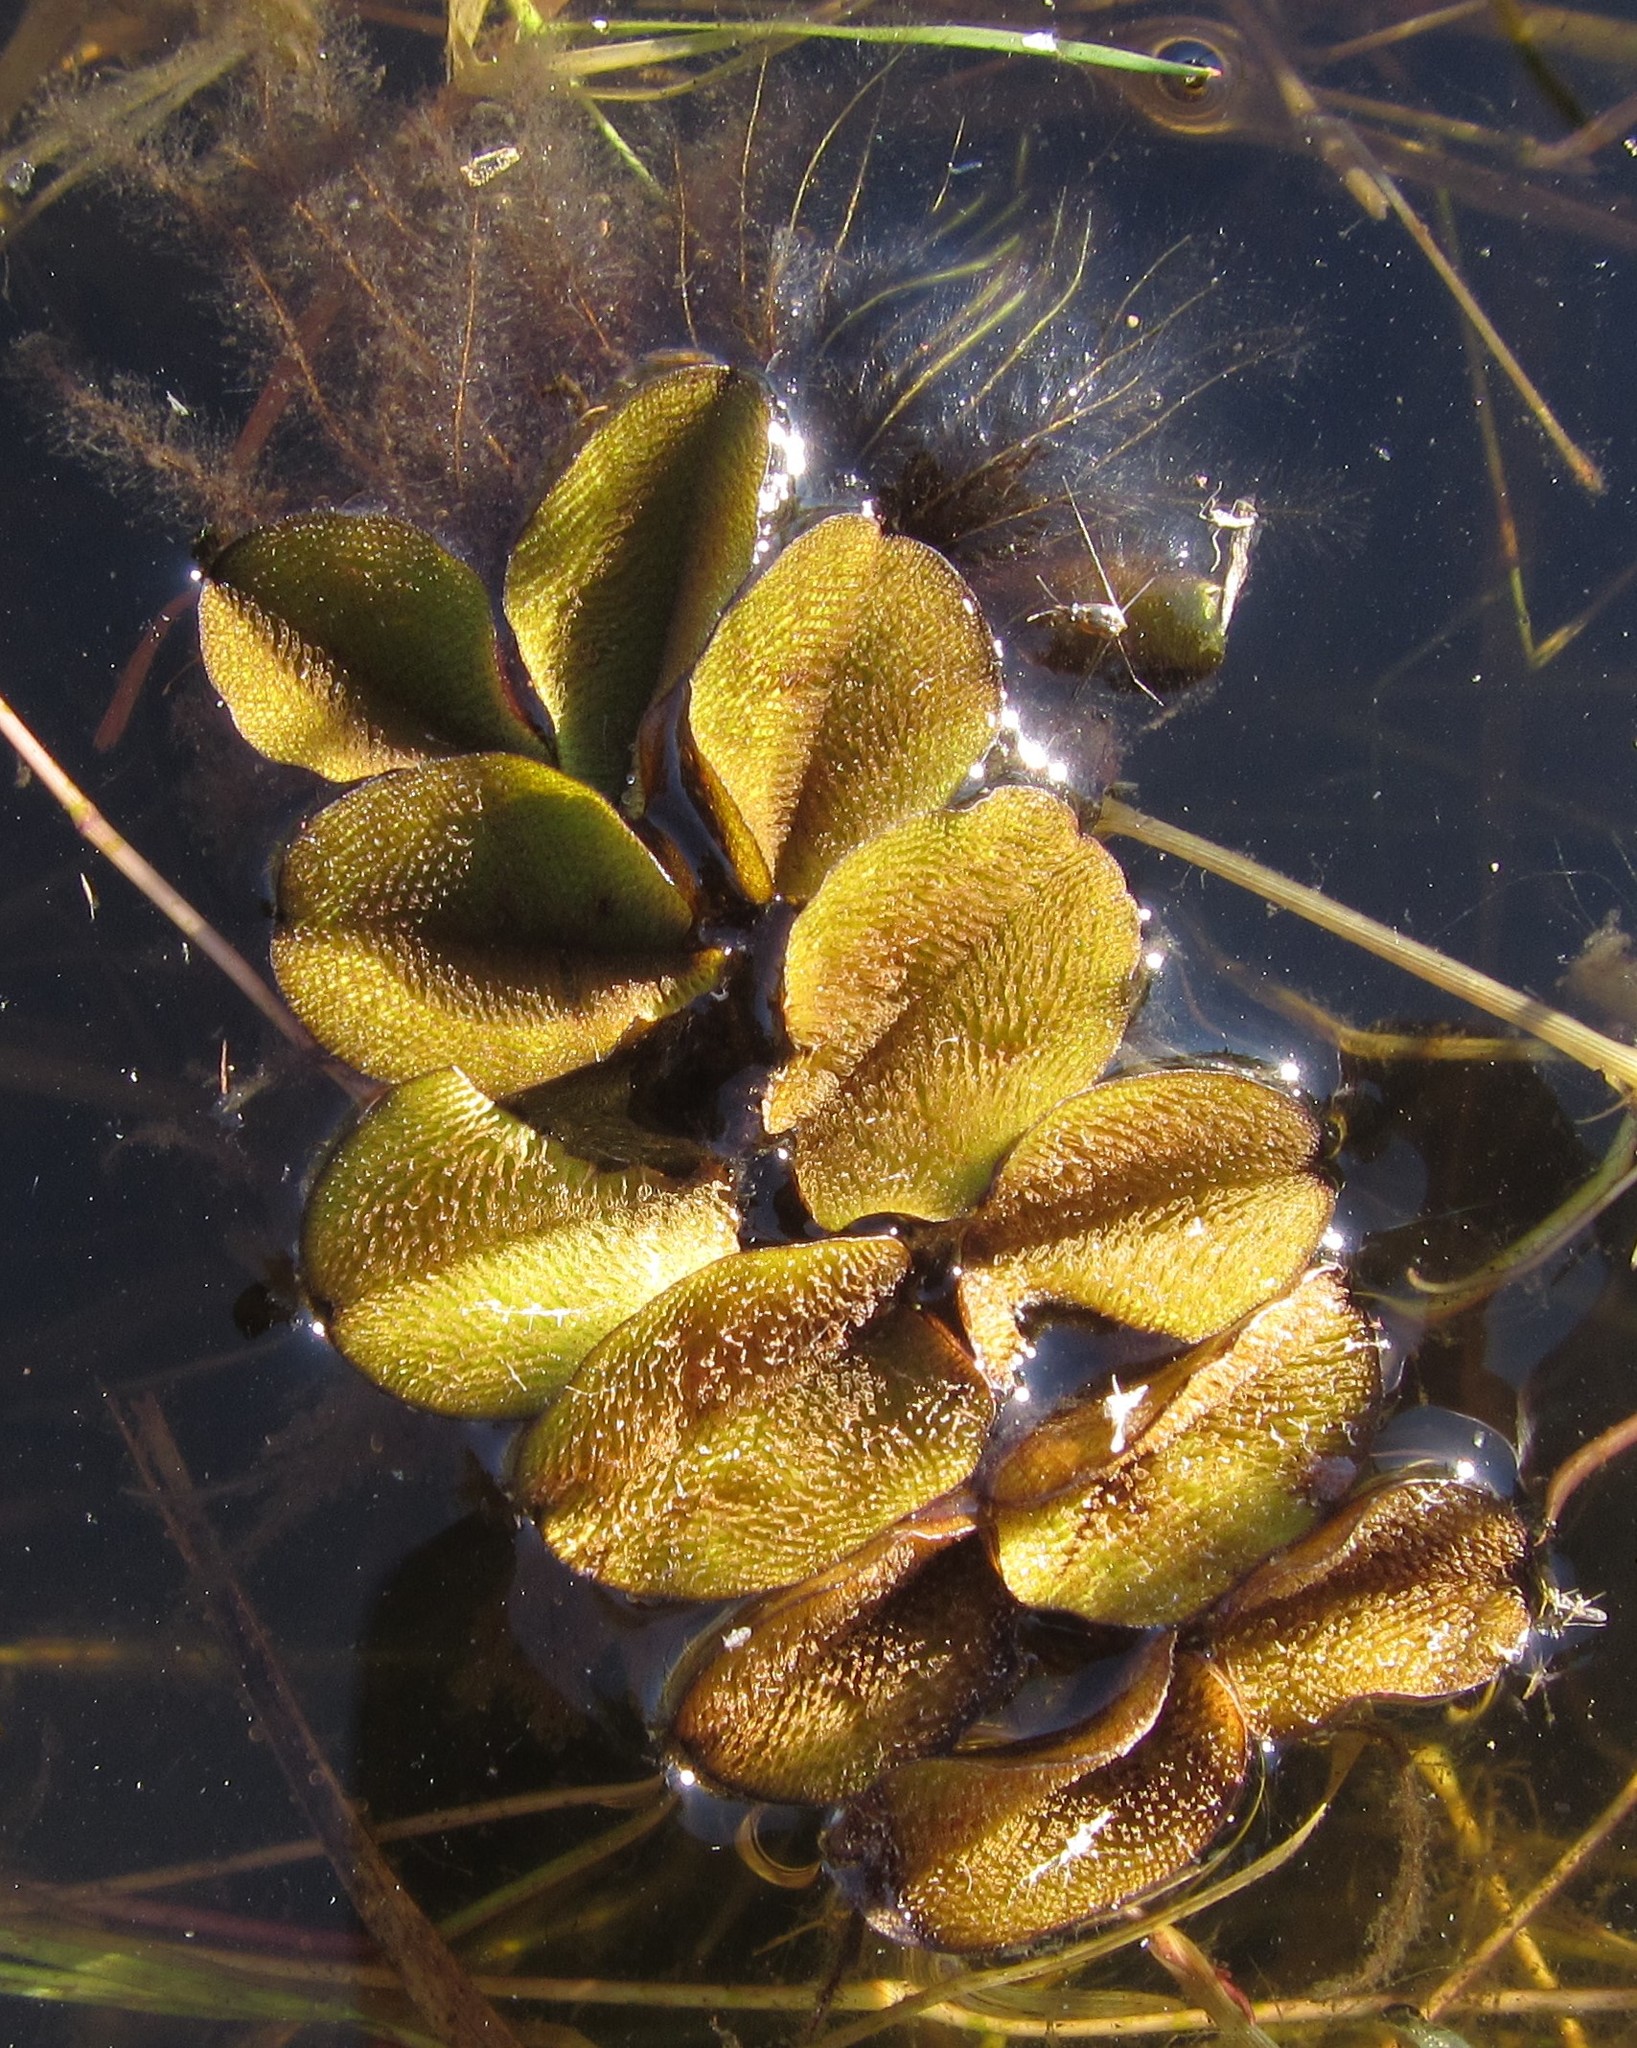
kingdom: Plantae
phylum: Tracheophyta
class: Polypodiopsida
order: Salviniales
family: Salviniaceae
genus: Salvinia
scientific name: Salvinia molesta
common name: Kariba weed
